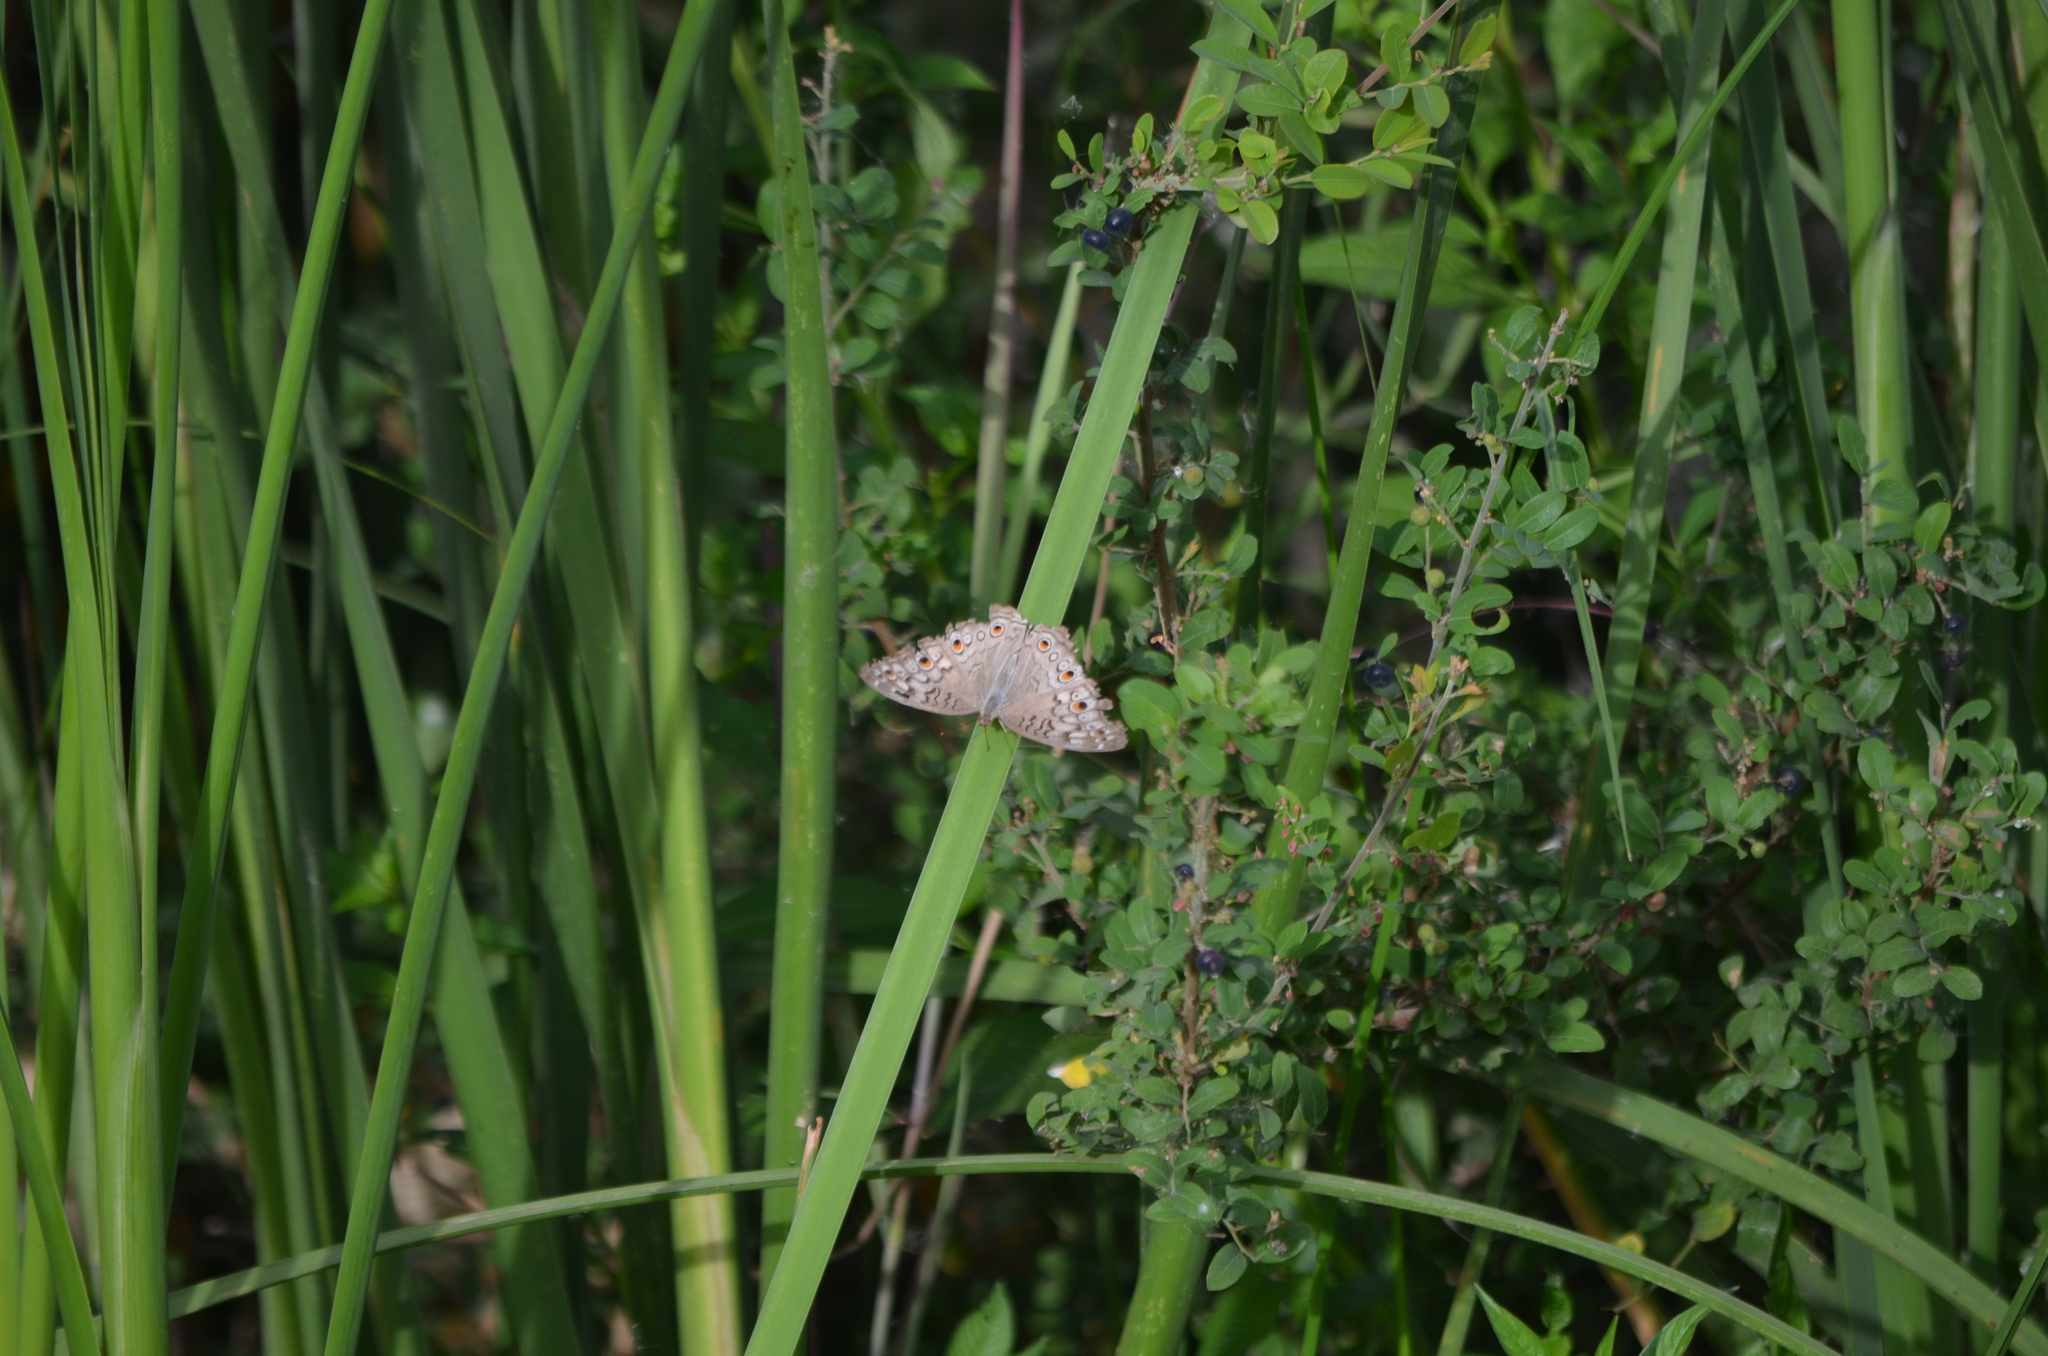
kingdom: Animalia
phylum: Arthropoda
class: Insecta
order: Lepidoptera
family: Nymphalidae
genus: Junonia
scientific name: Junonia atlites
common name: Grey pansy
